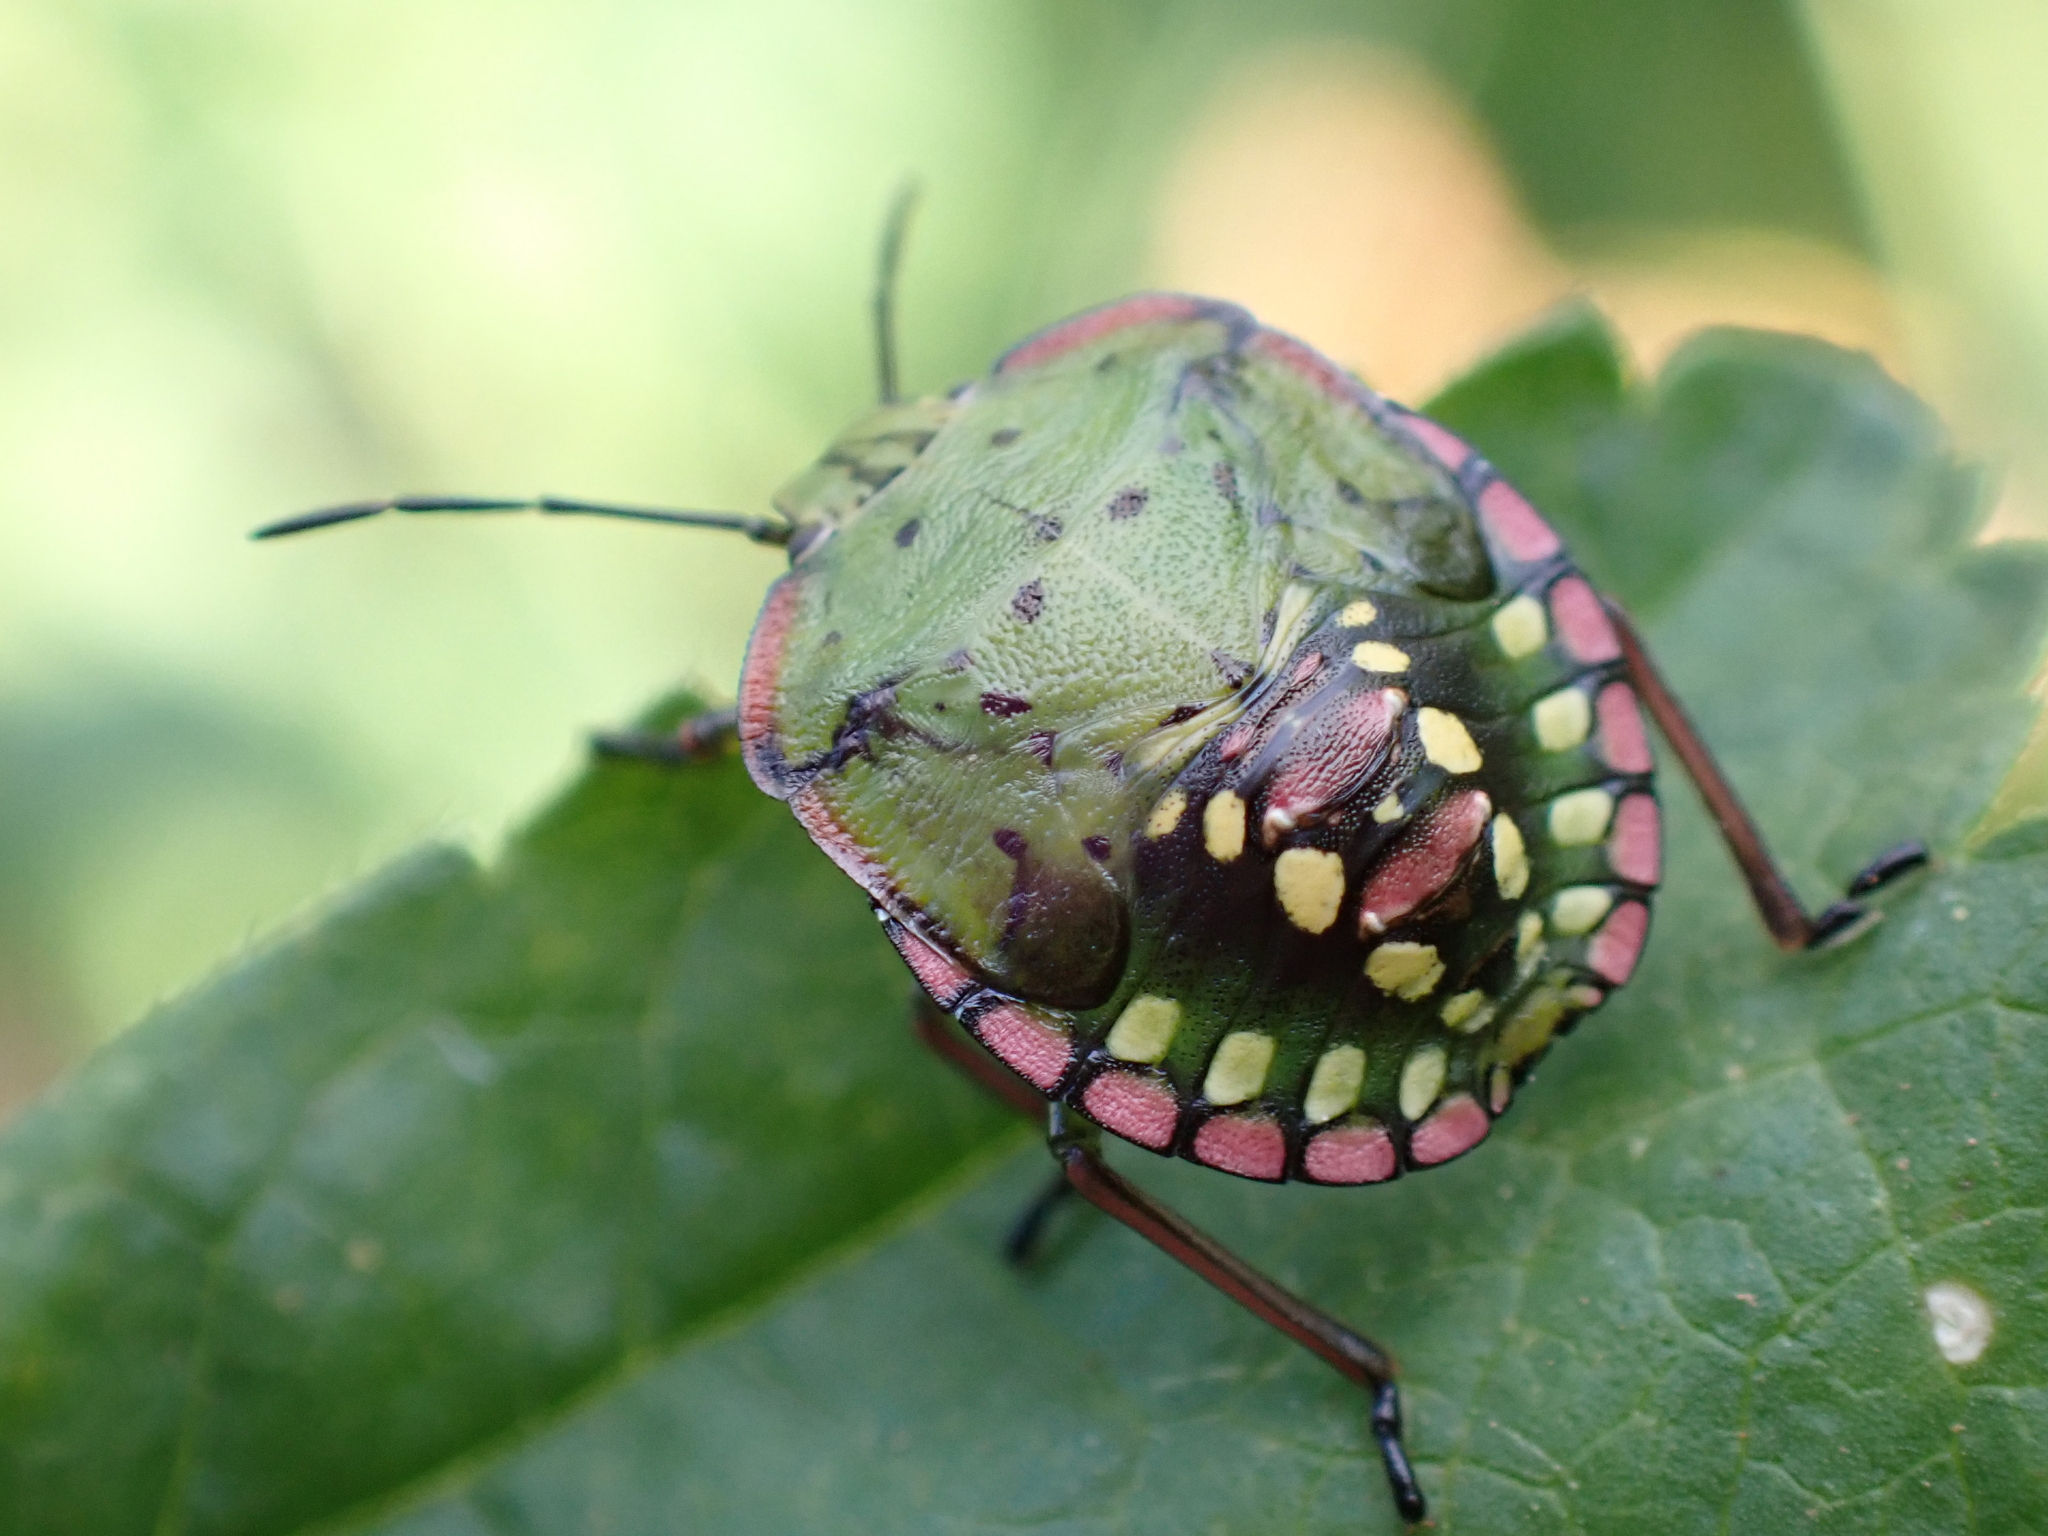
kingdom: Animalia
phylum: Arthropoda
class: Insecta
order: Hemiptera
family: Pentatomidae
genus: Nezara
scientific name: Nezara viridula
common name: Southern green stink bug
